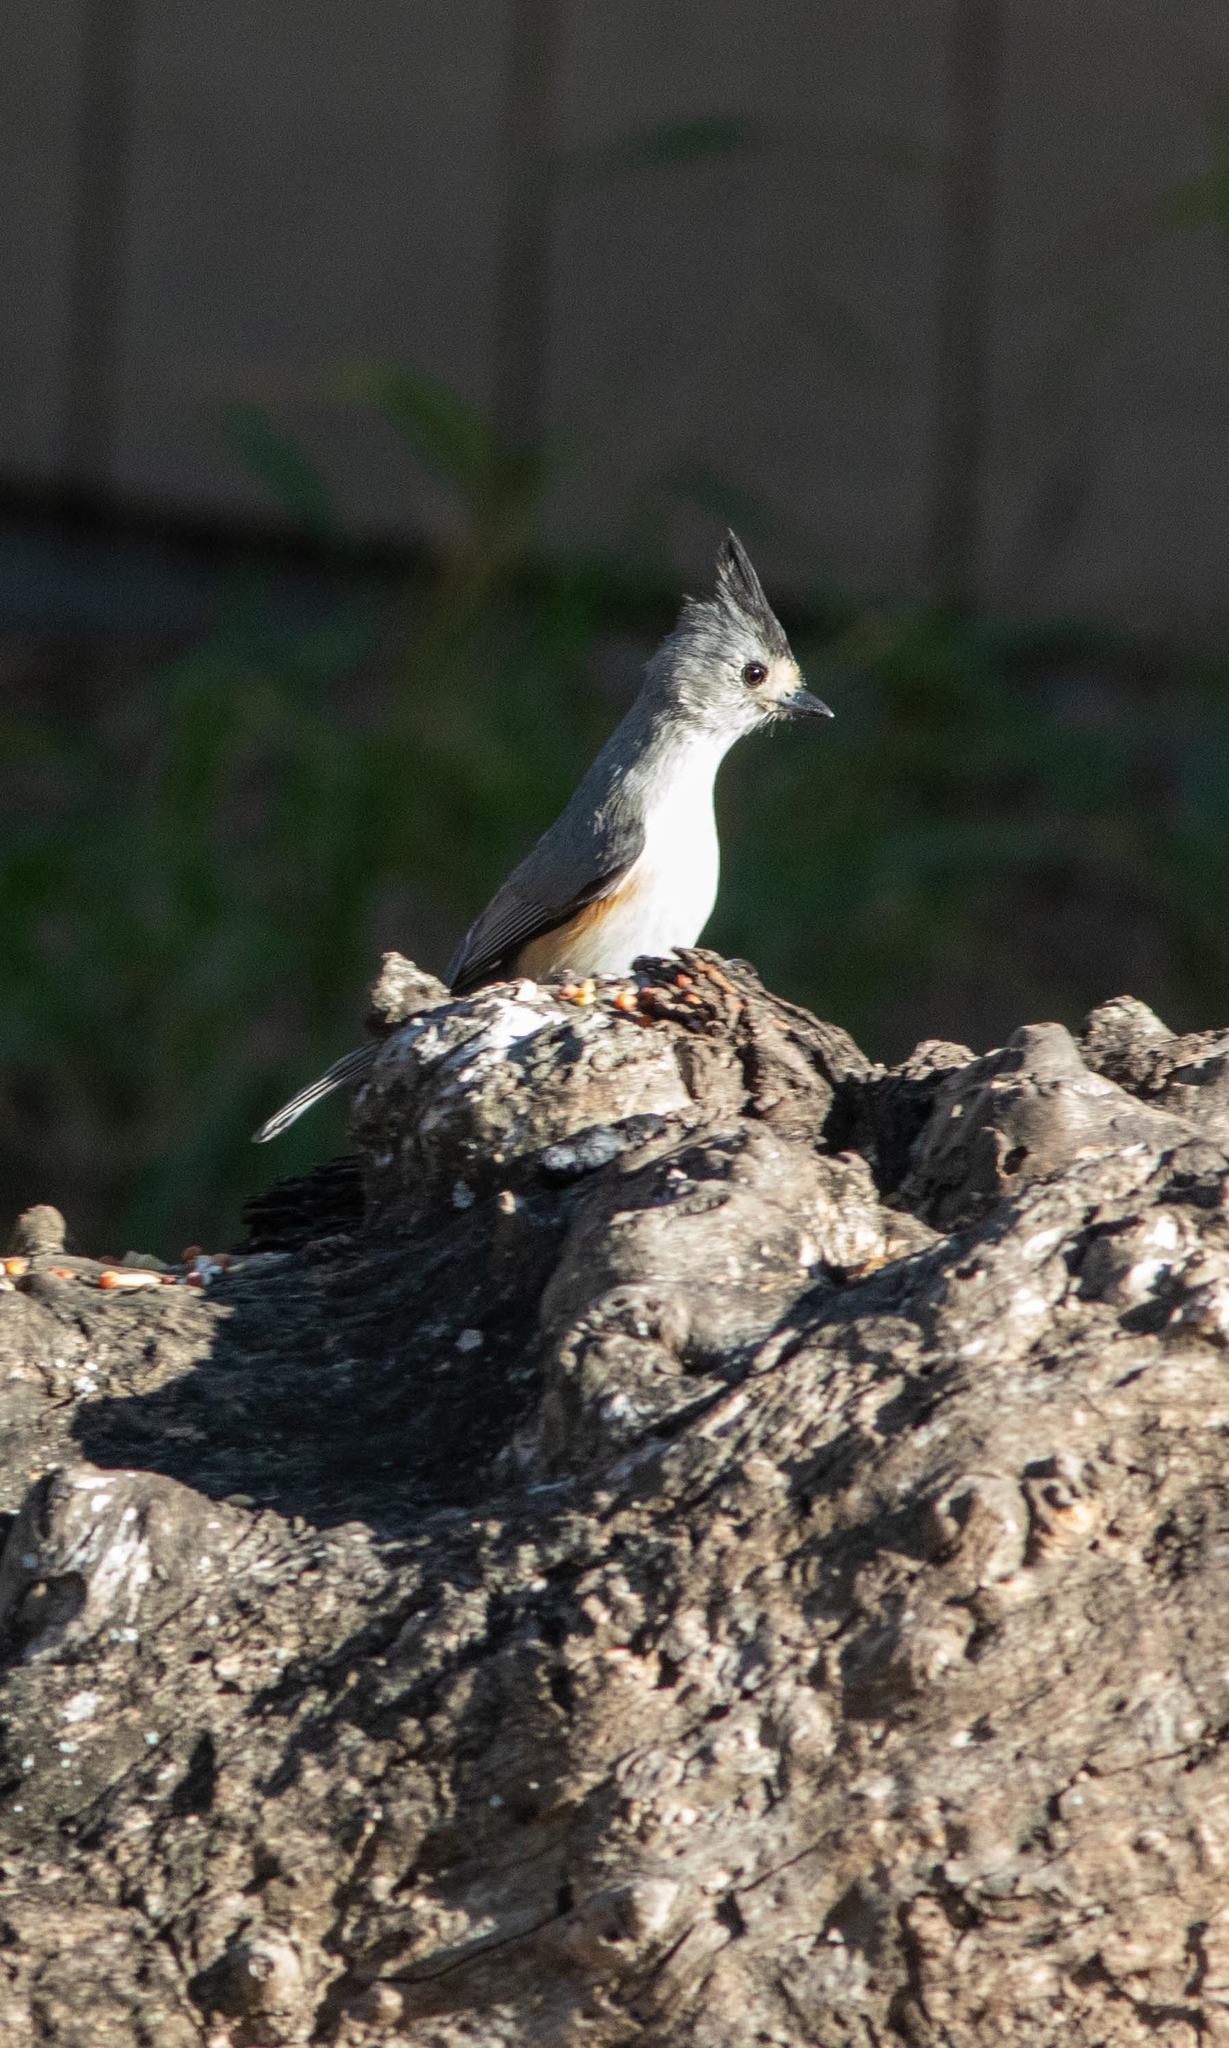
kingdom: Animalia
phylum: Chordata
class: Aves
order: Passeriformes
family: Paridae
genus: Baeolophus
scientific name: Baeolophus atricristatus
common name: Black-crested titmouse
